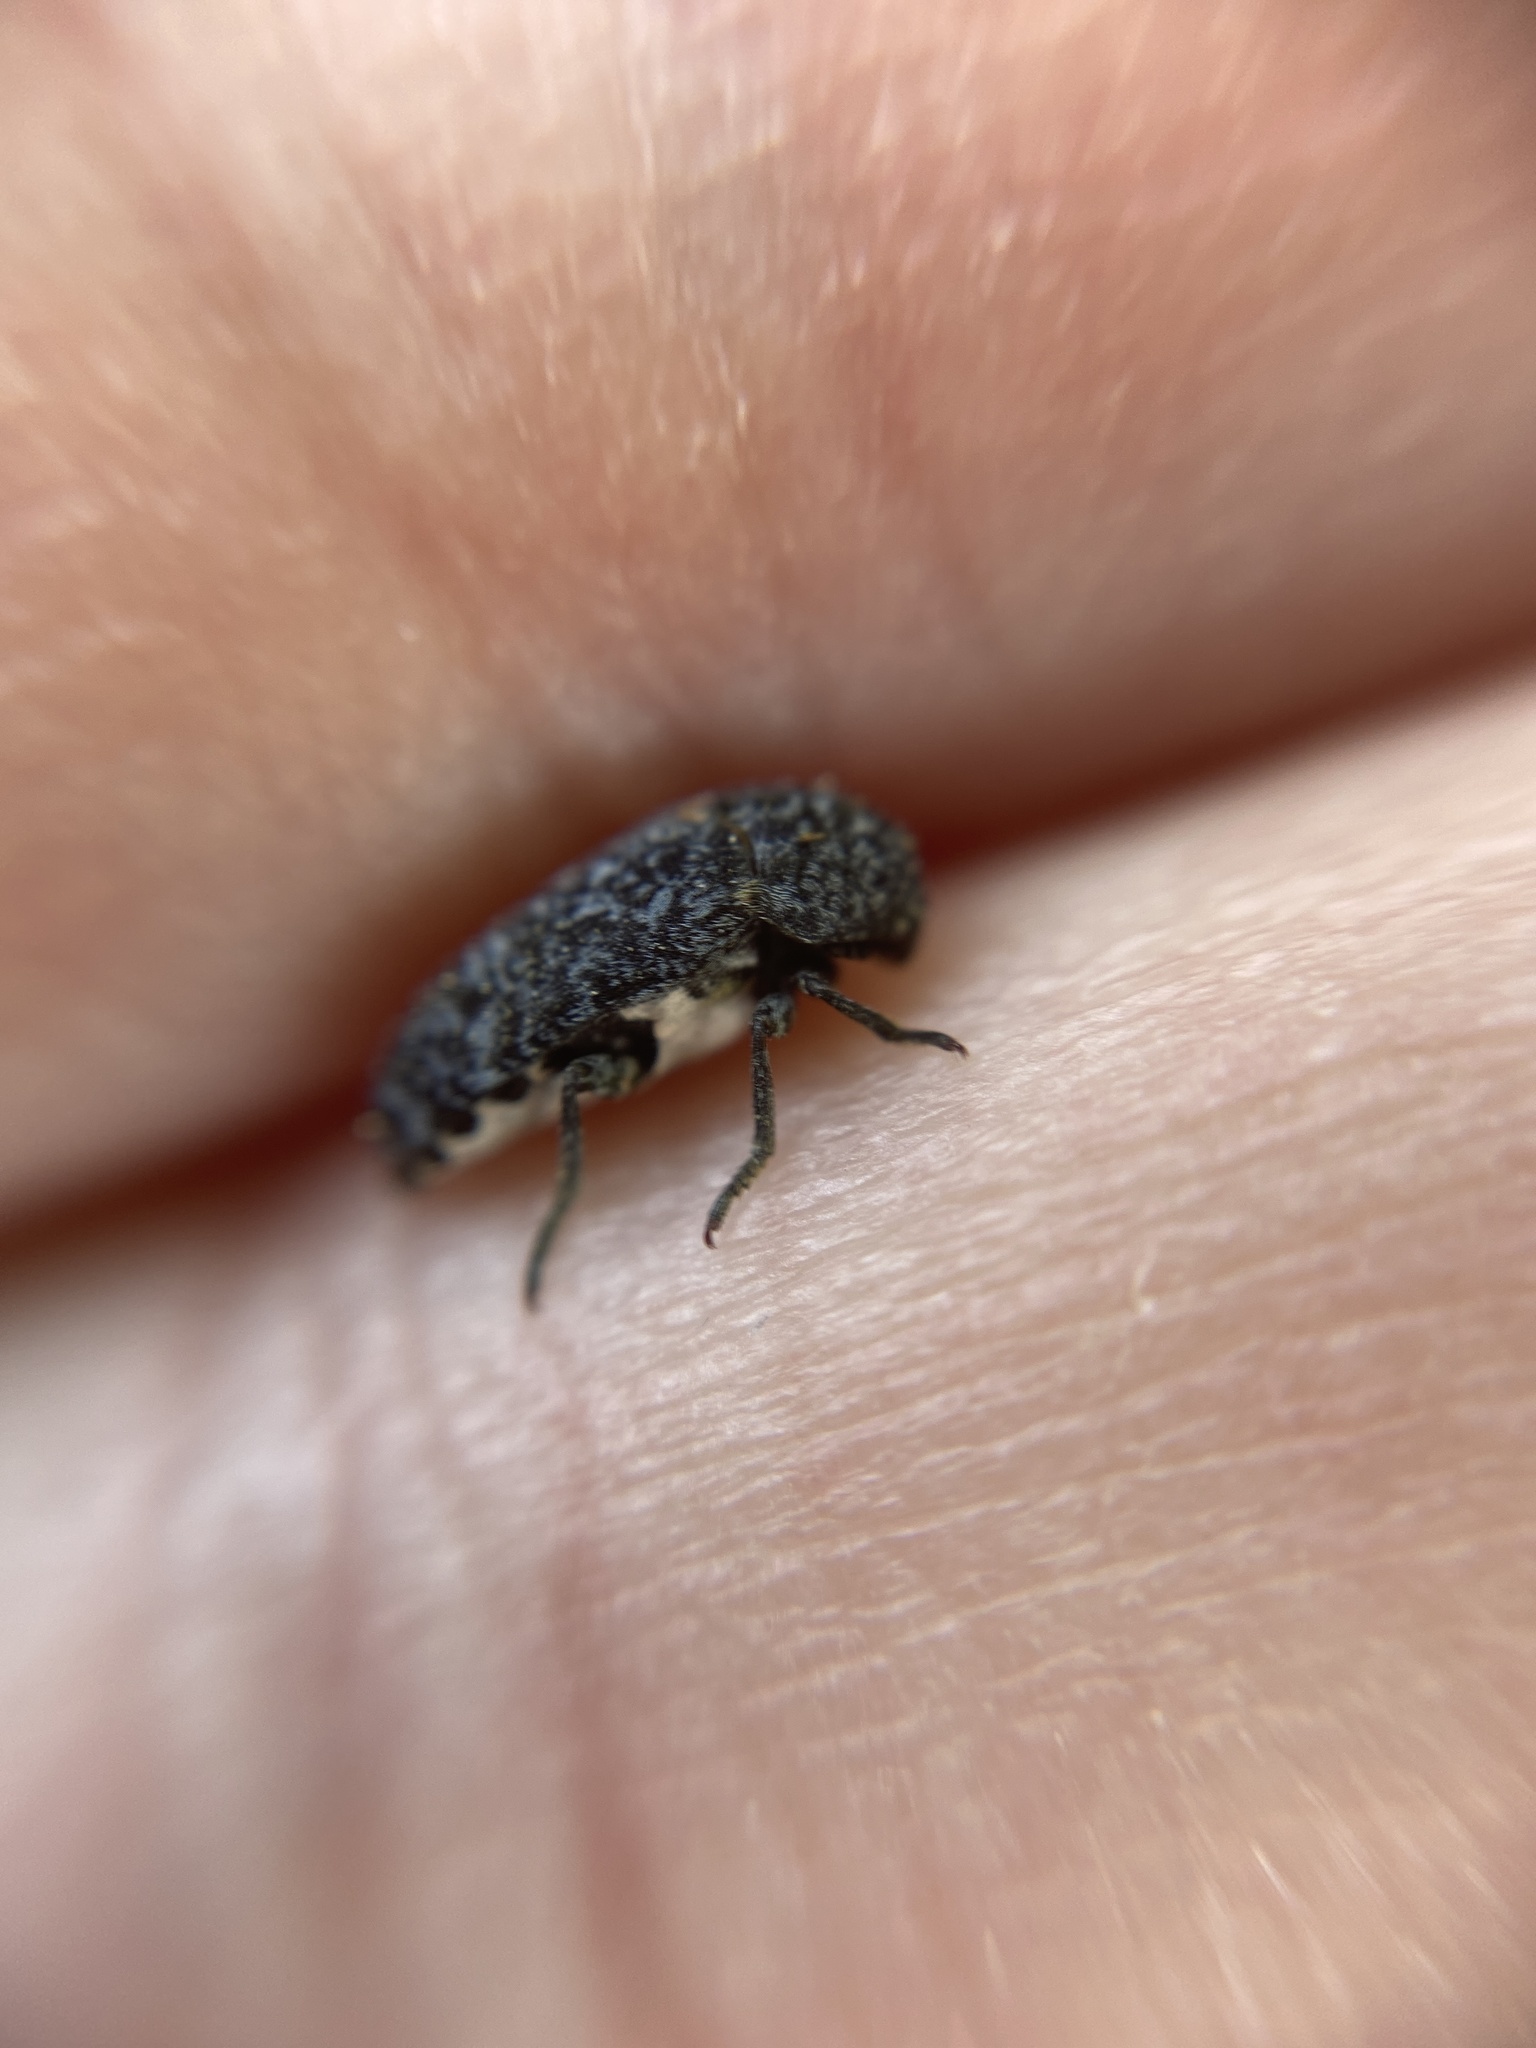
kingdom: Animalia
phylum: Arthropoda
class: Insecta
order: Coleoptera
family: Dermestidae
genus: Dermestes
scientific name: Dermestes murinus
